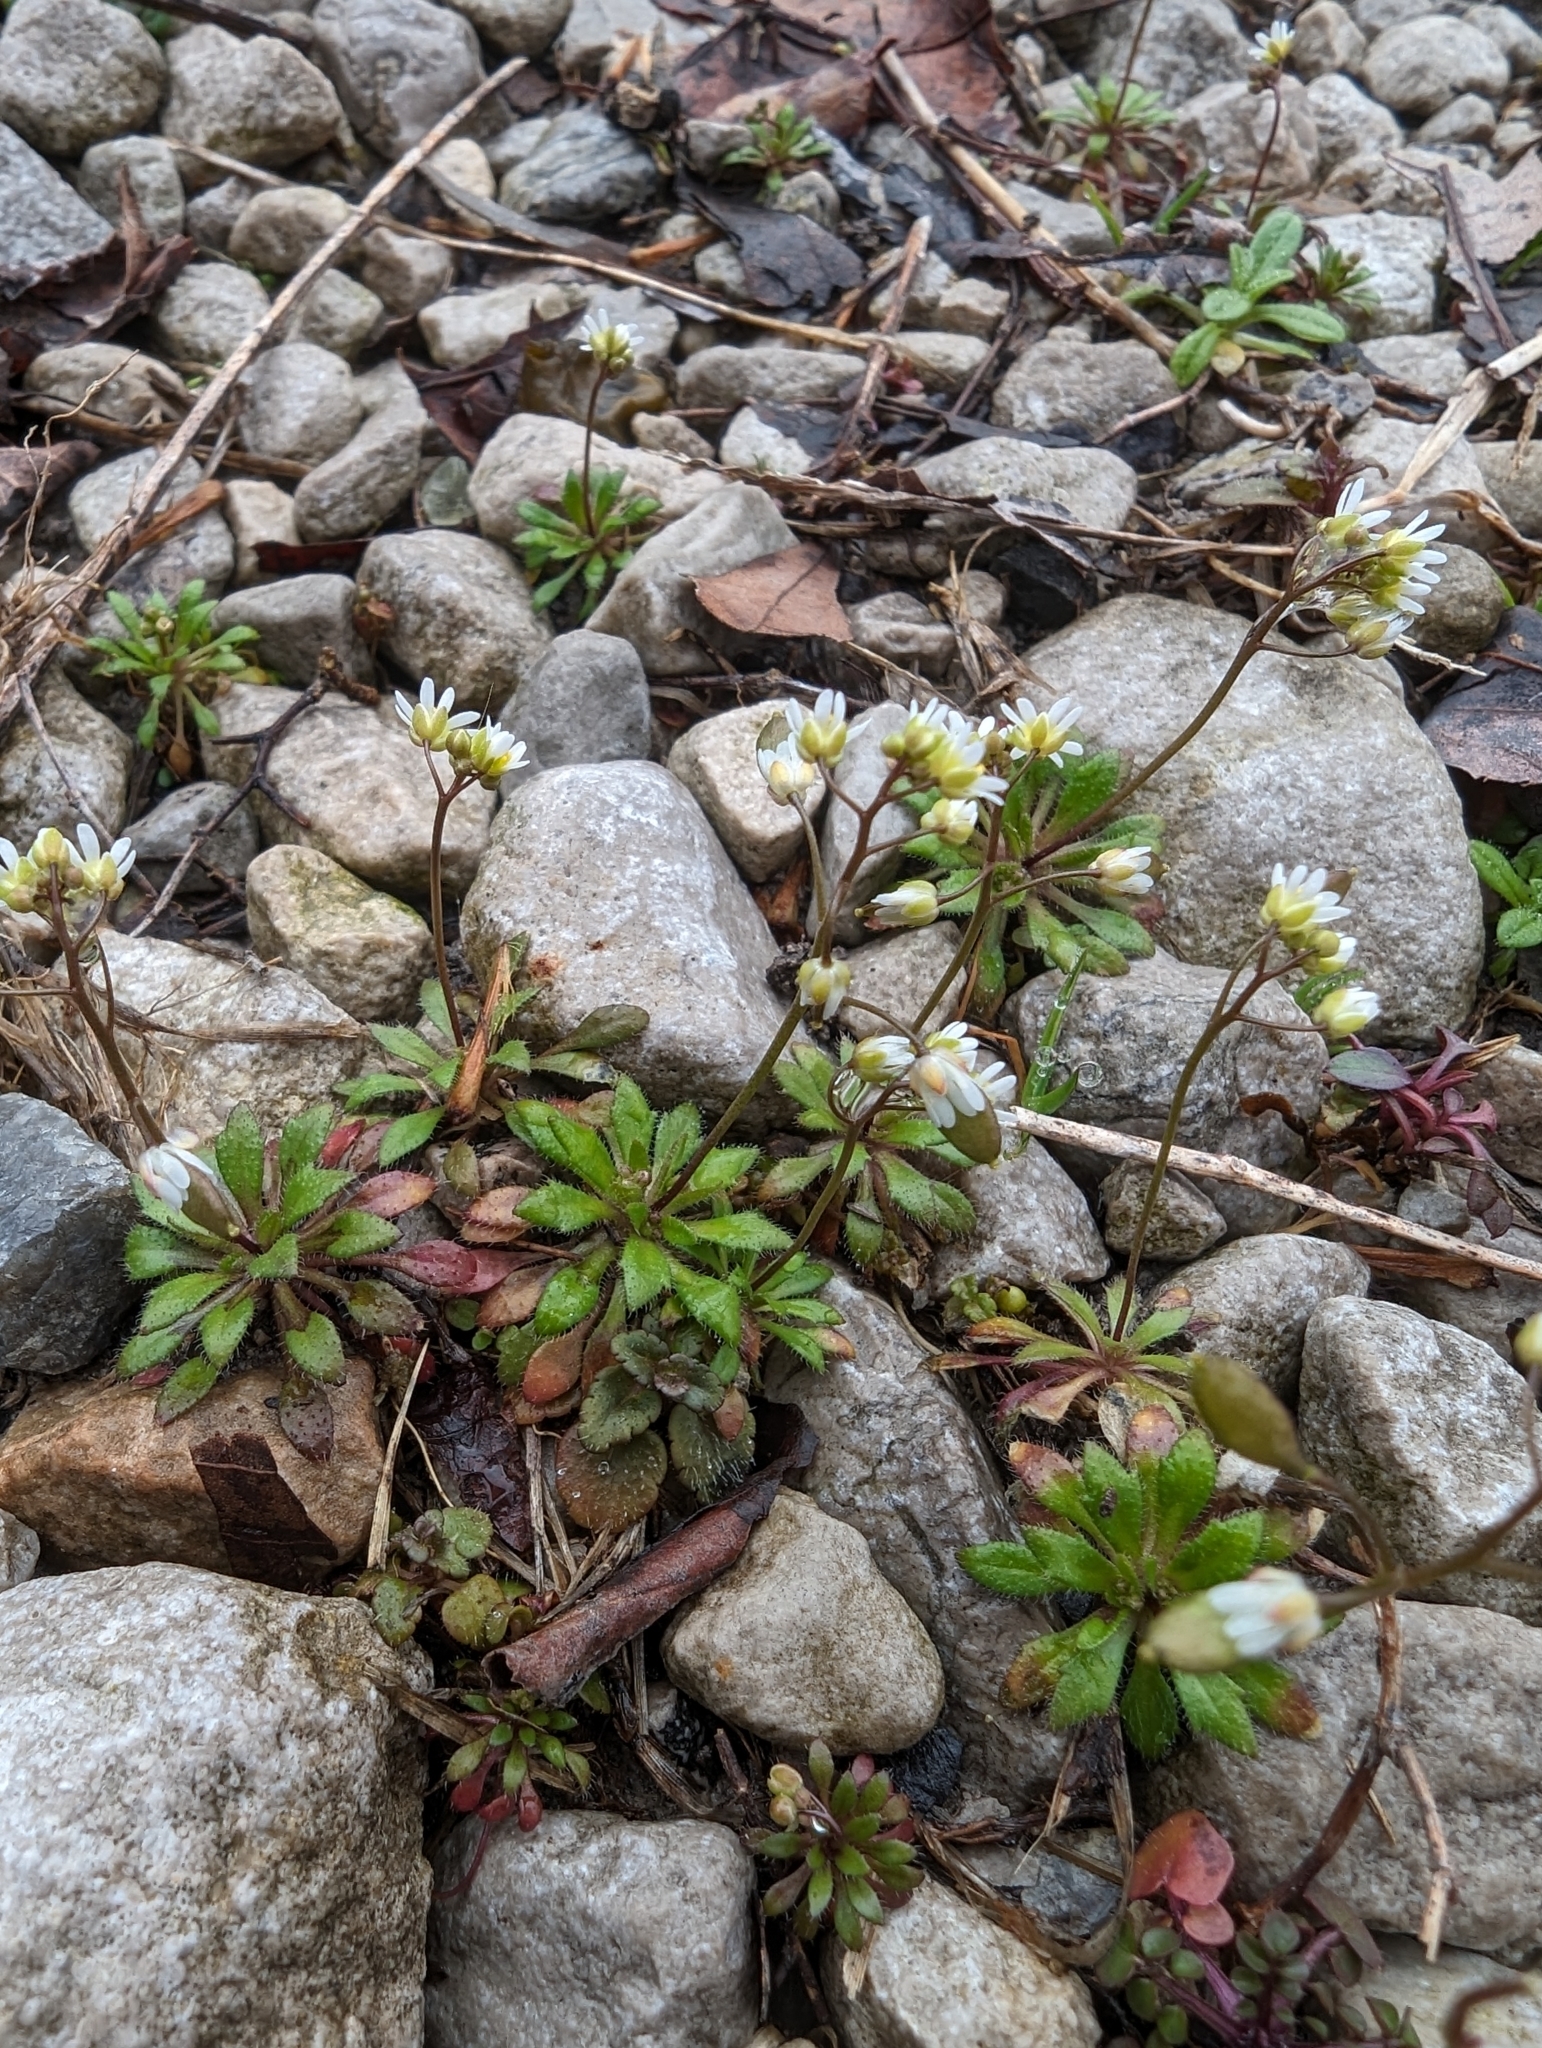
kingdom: Plantae
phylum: Tracheophyta
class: Magnoliopsida
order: Brassicales
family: Brassicaceae
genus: Draba
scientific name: Draba verna
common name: Spring draba
